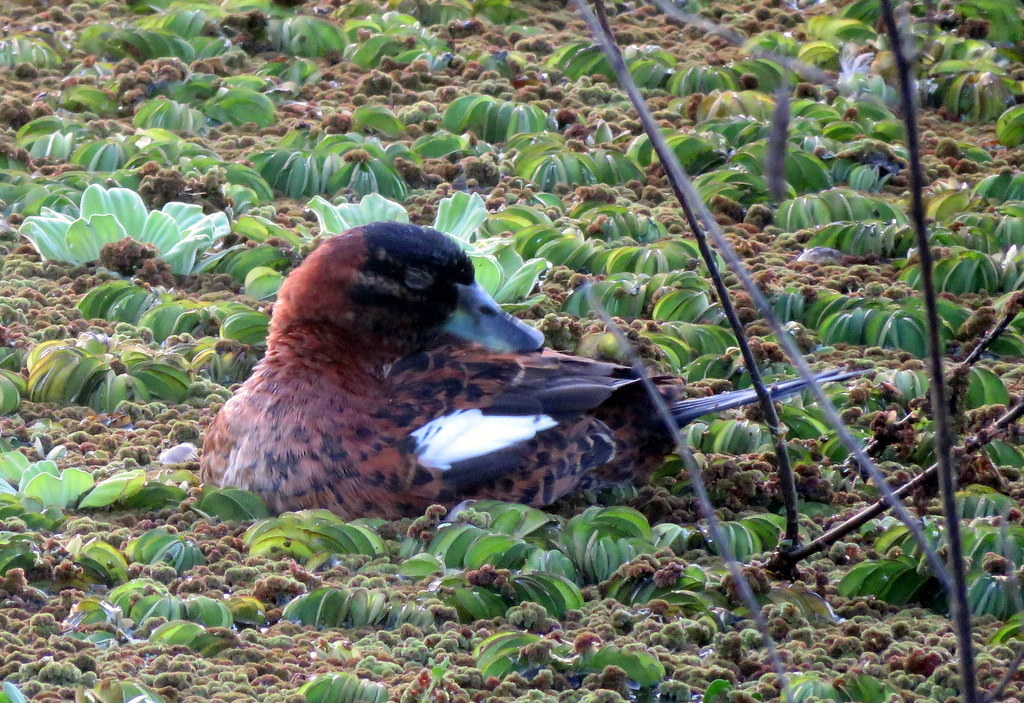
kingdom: Animalia
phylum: Chordata
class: Aves
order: Anseriformes
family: Anatidae
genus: Nomonyx
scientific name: Nomonyx dominicus
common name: Masked duck
